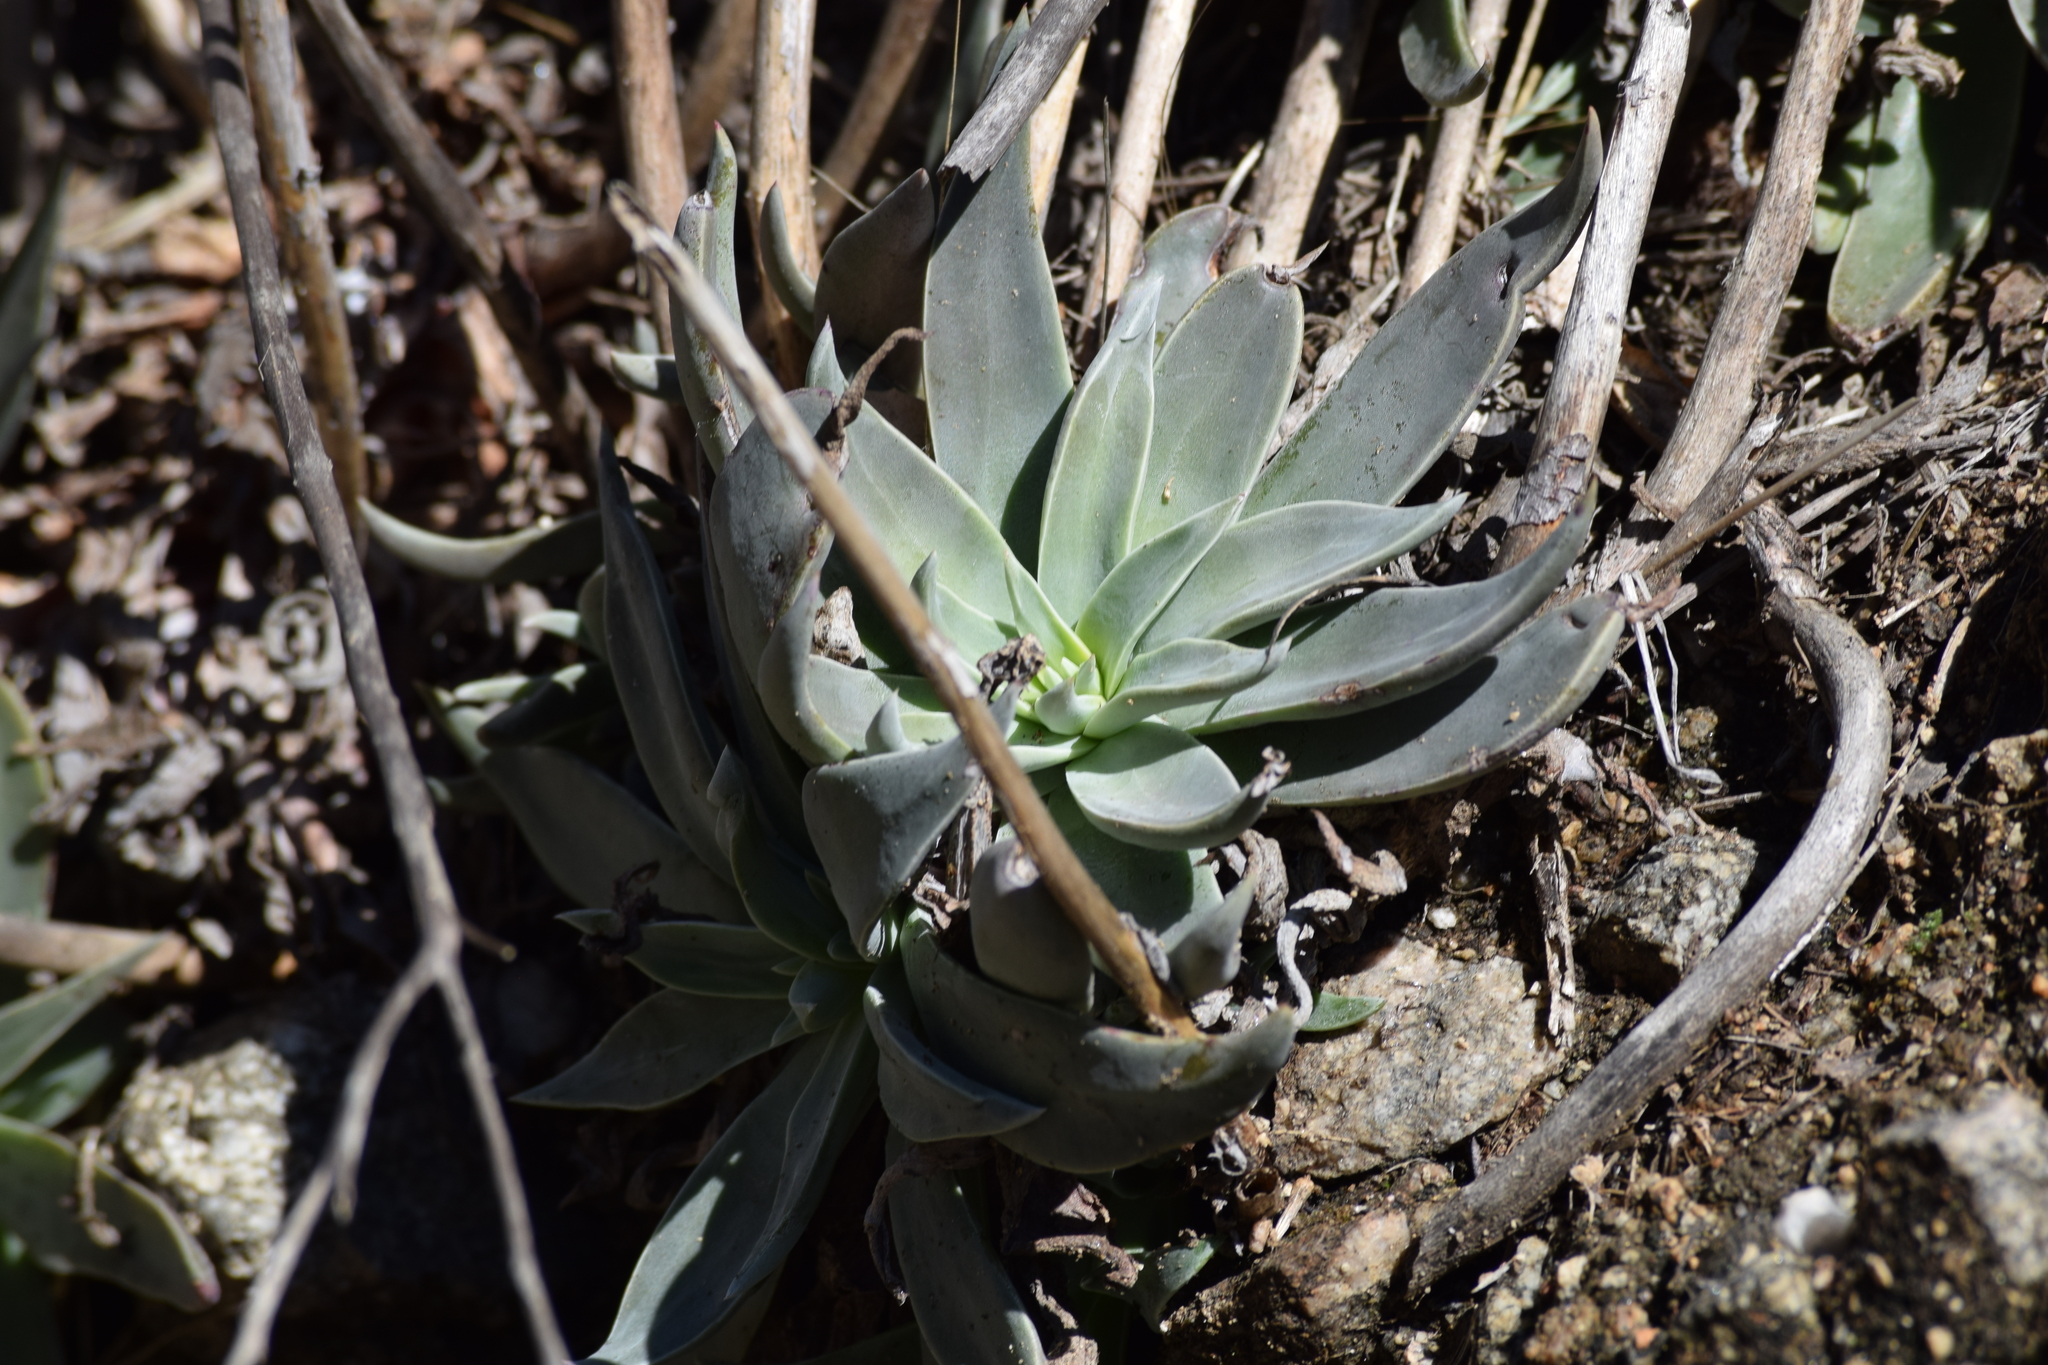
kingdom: Plantae
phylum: Tracheophyta
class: Magnoliopsida
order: Saxifragales
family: Crassulaceae
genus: Dudleya
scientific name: Dudleya lanceolata
